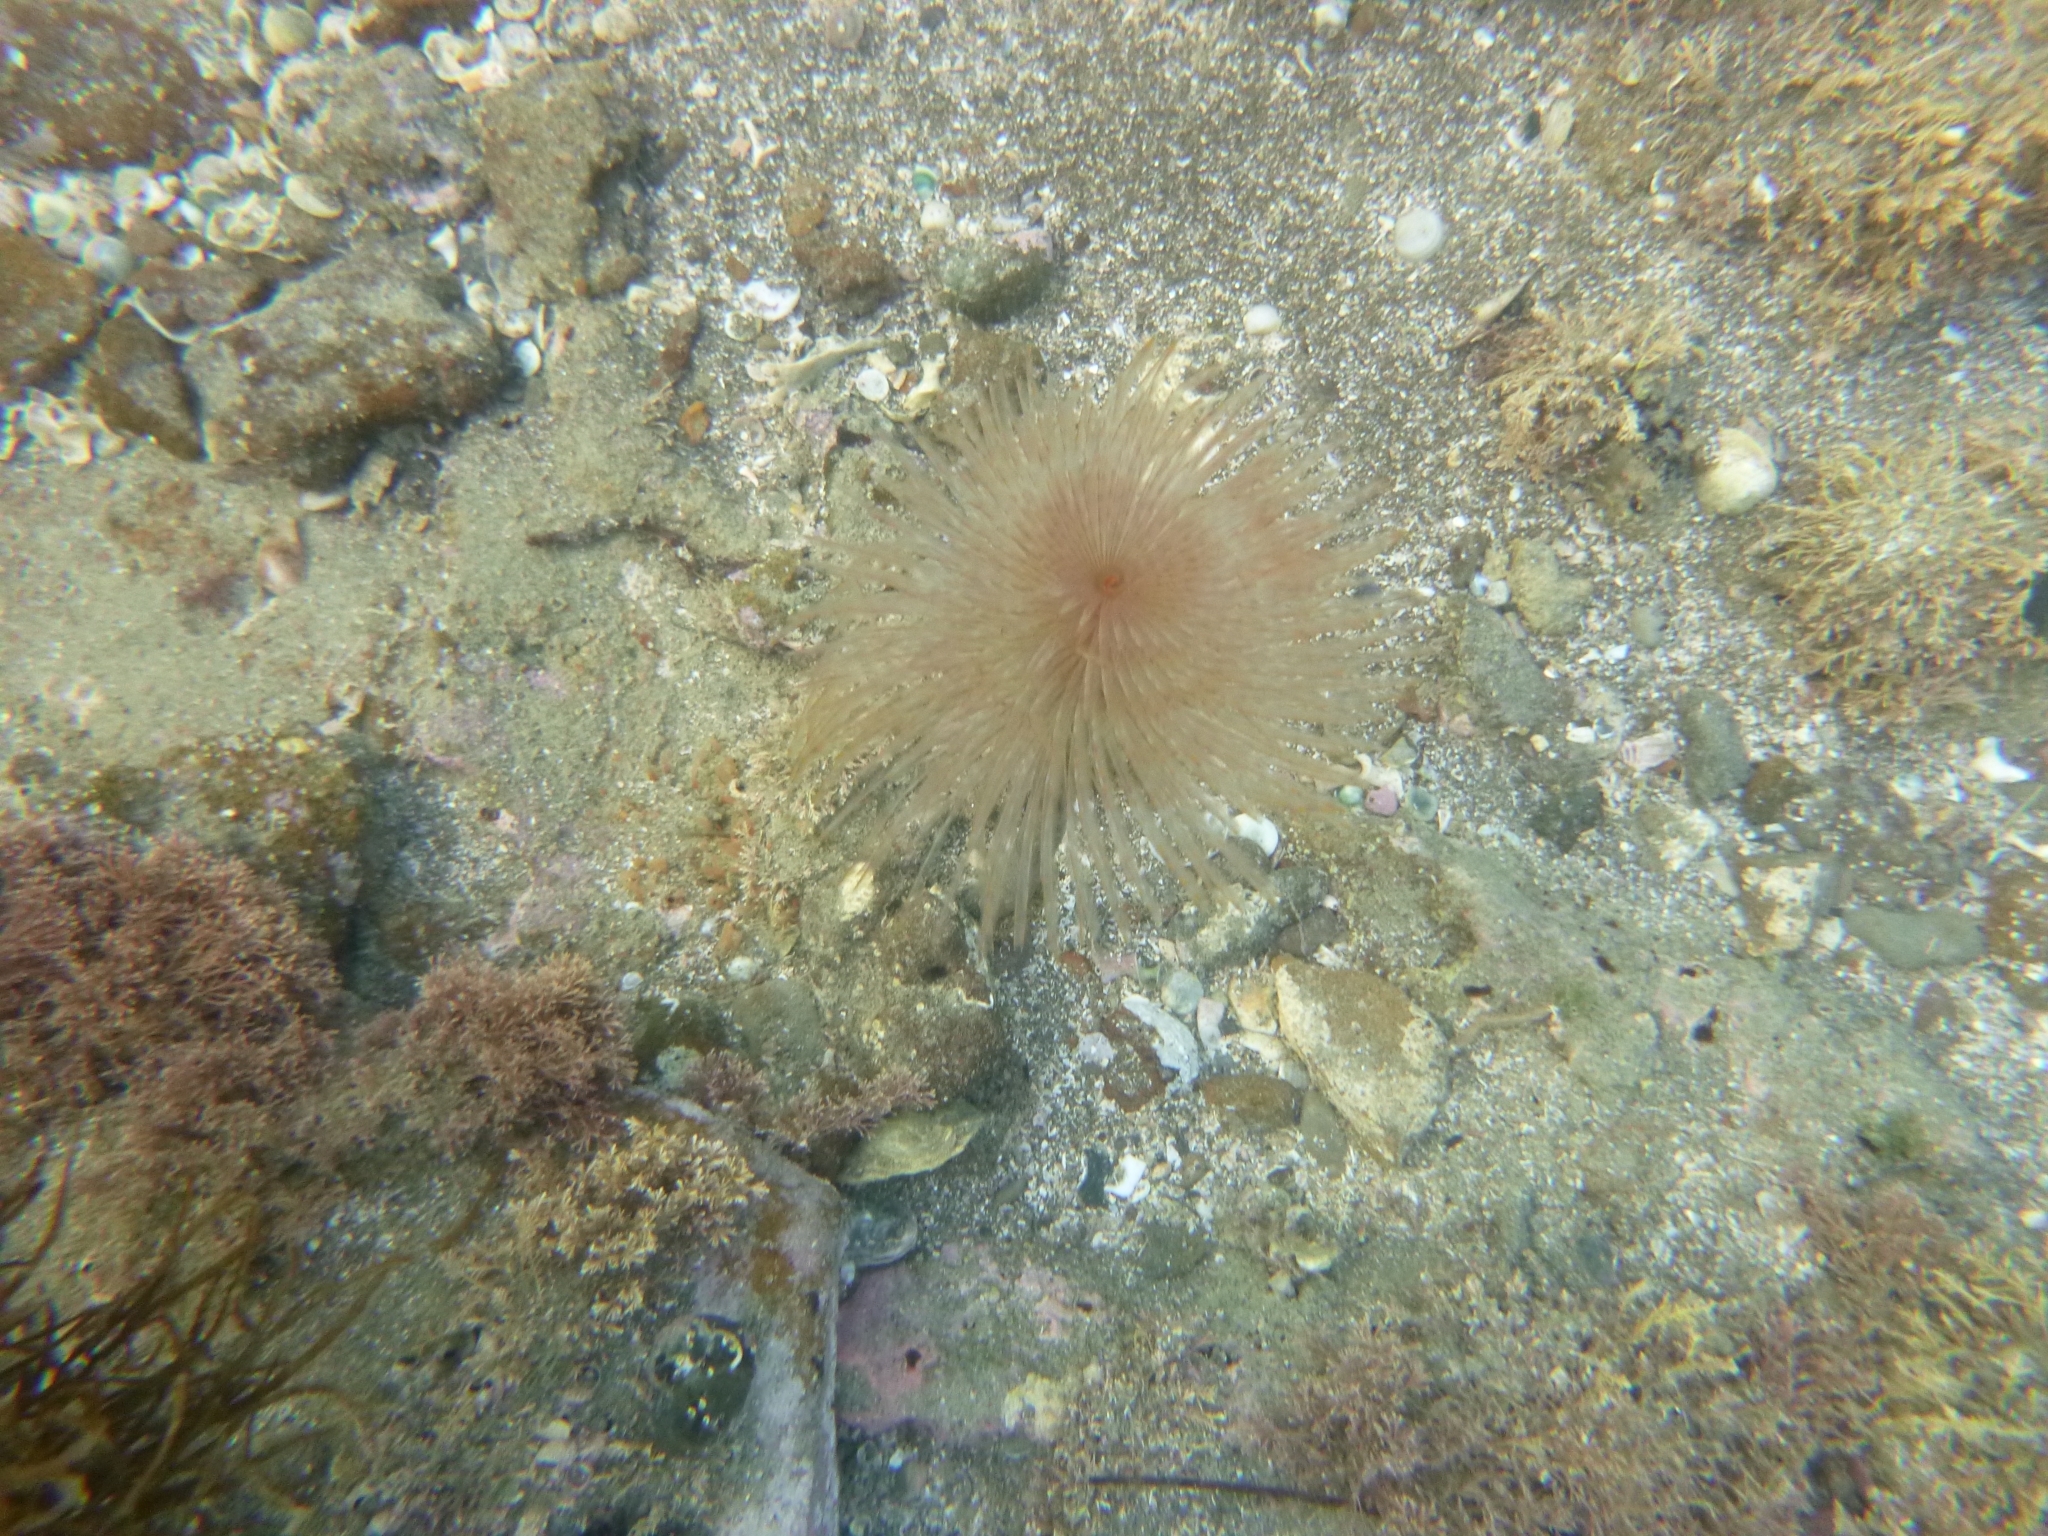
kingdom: Animalia
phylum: Annelida
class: Polychaeta
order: Sabellida
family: Sabellidae
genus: Sabella
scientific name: Sabella spallanzanii
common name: Feather duster worm
